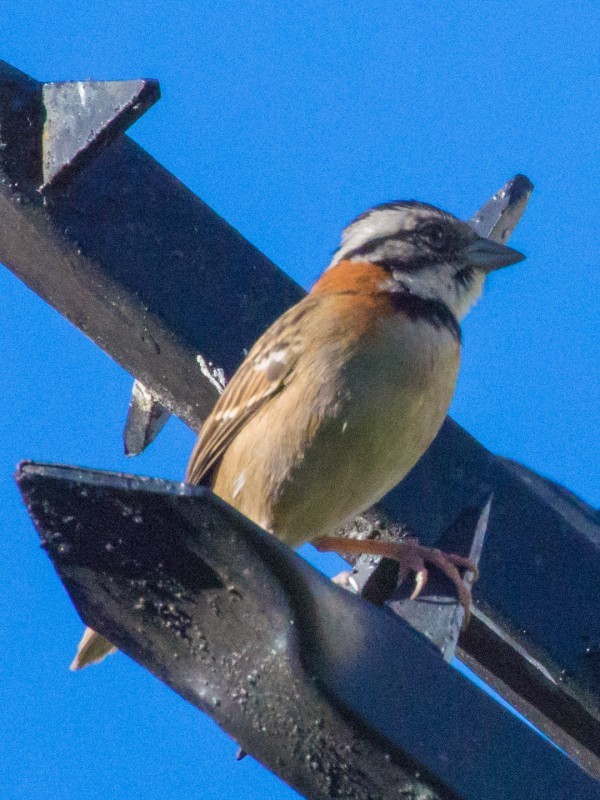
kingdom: Animalia
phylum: Chordata
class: Aves
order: Passeriformes
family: Passerellidae
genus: Zonotrichia
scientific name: Zonotrichia capensis
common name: Rufous-collared sparrow
